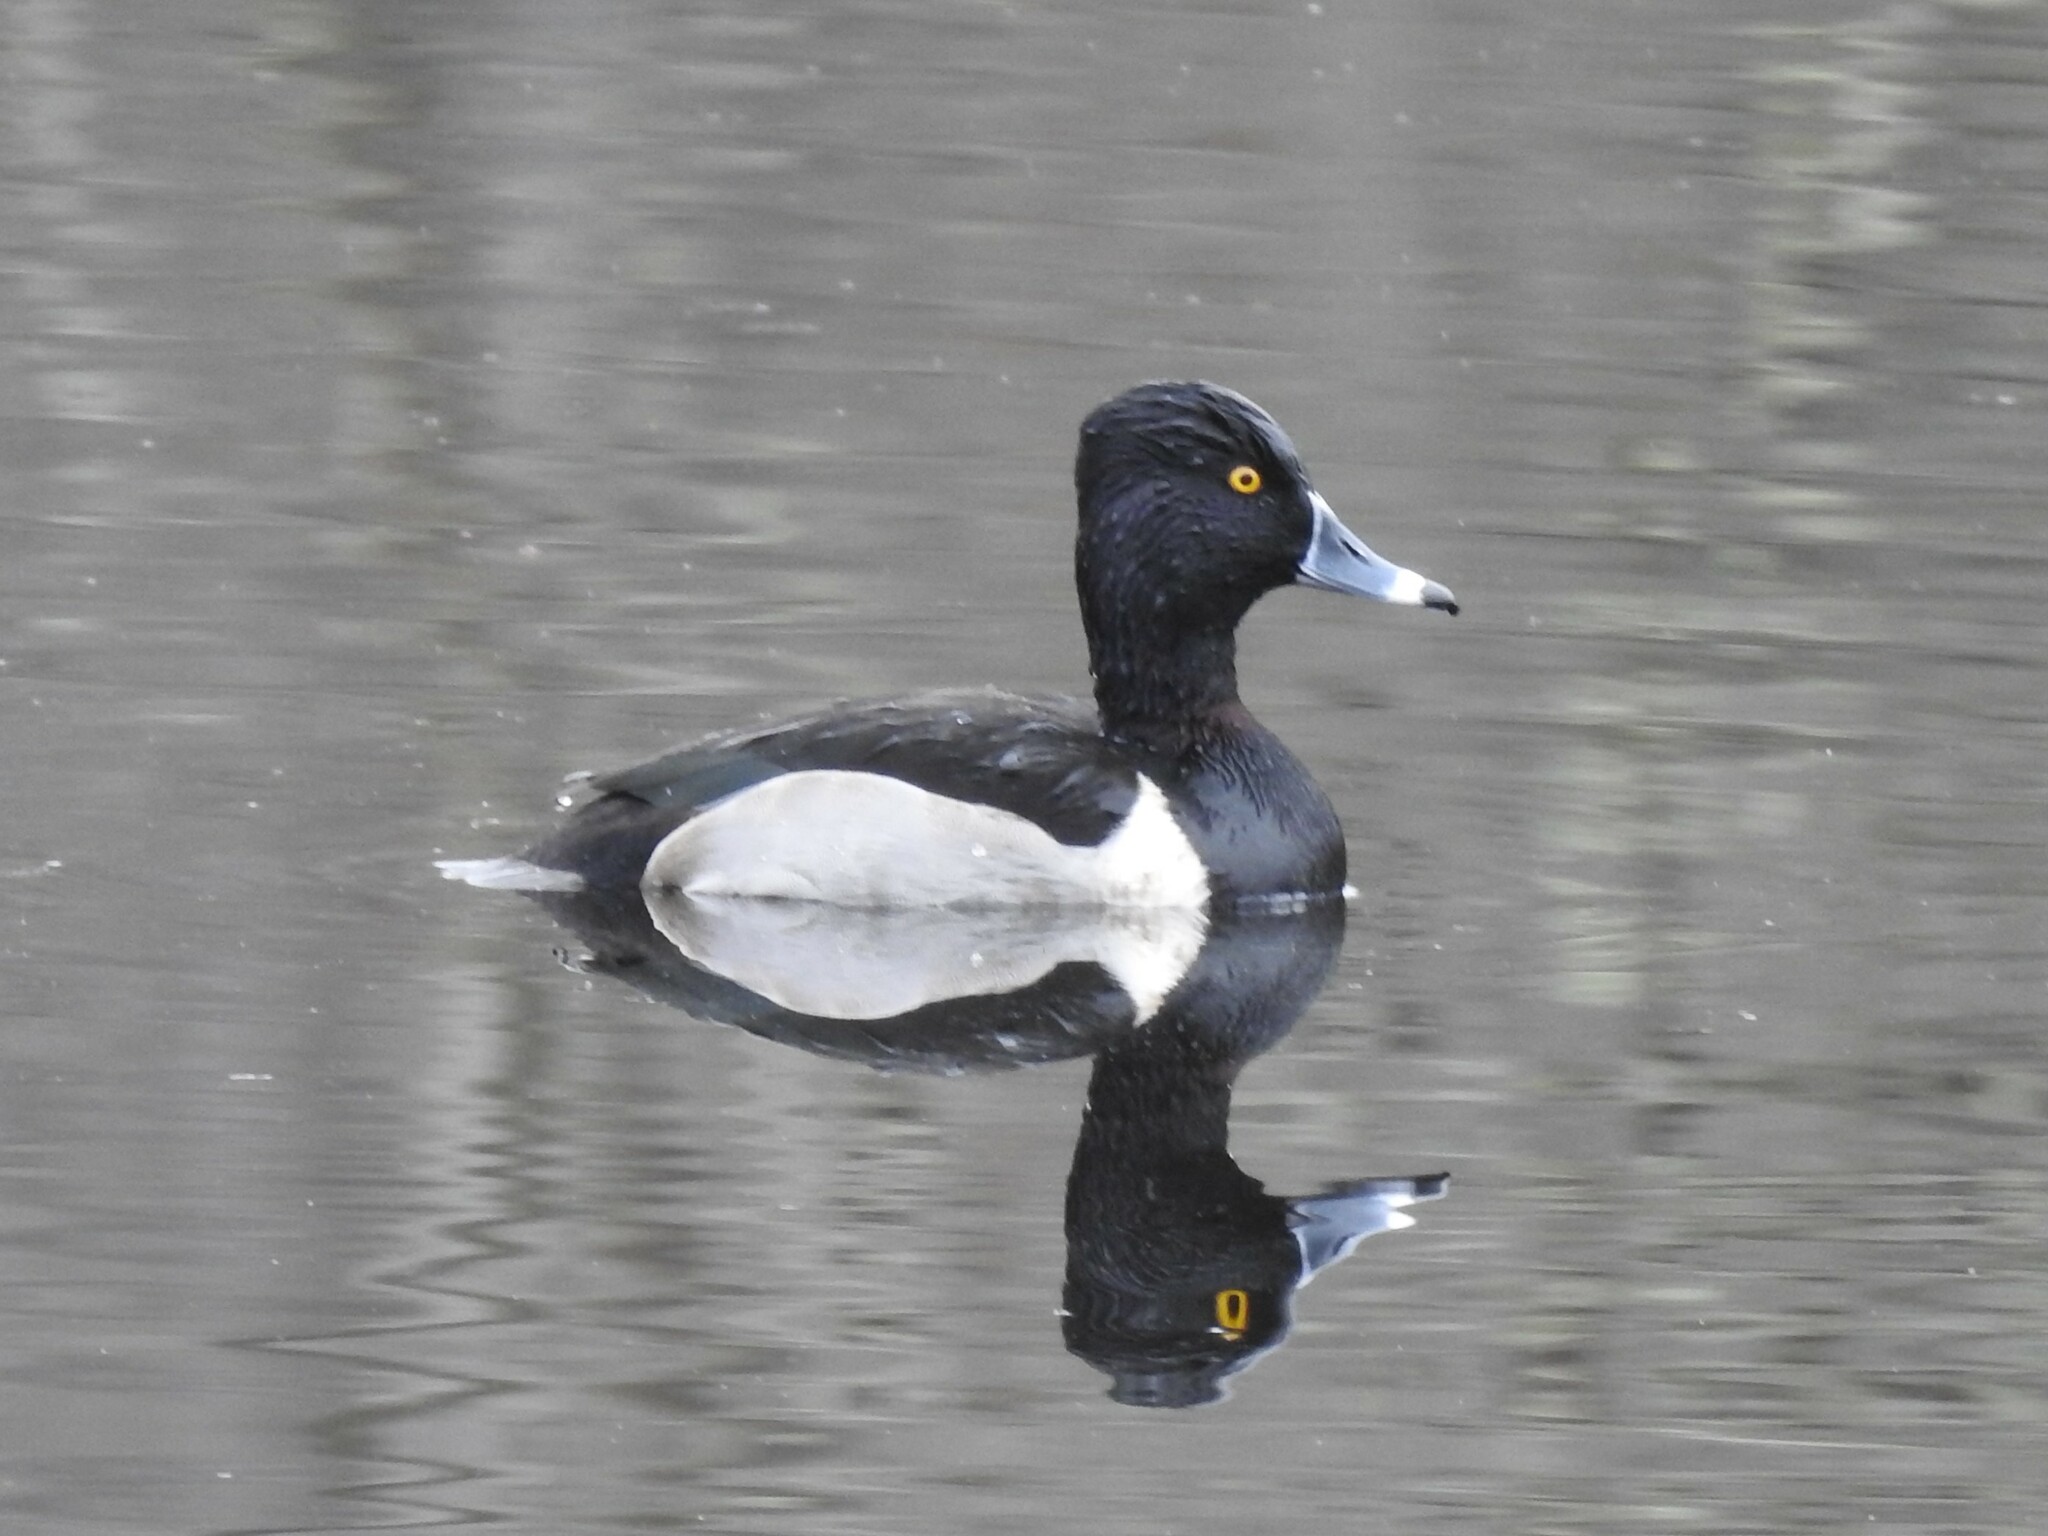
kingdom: Animalia
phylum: Chordata
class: Aves
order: Anseriformes
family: Anatidae
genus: Aythya
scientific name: Aythya collaris
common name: Ring-necked duck
